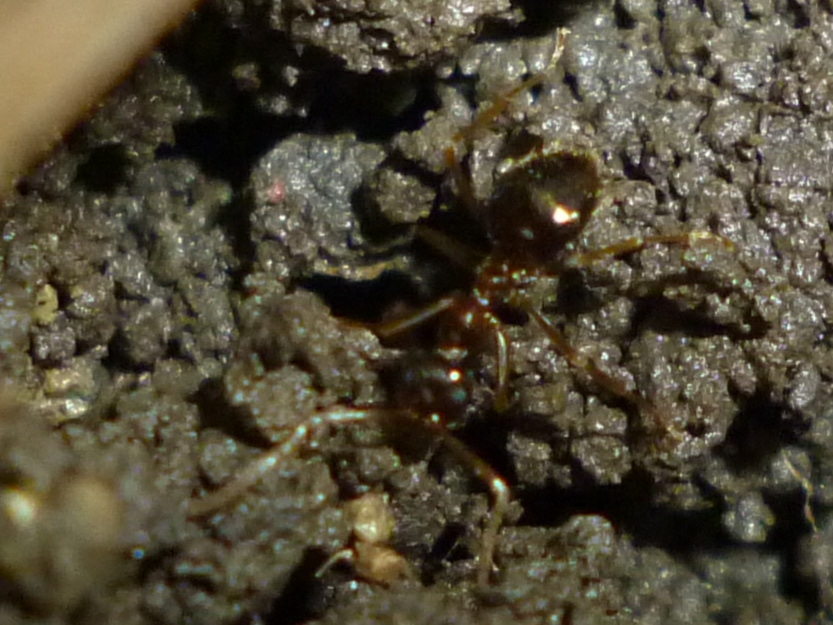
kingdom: Animalia
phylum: Arthropoda
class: Insecta
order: Hymenoptera
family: Formicidae
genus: Prenolepis
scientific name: Prenolepis imparis
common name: Small honey ant
